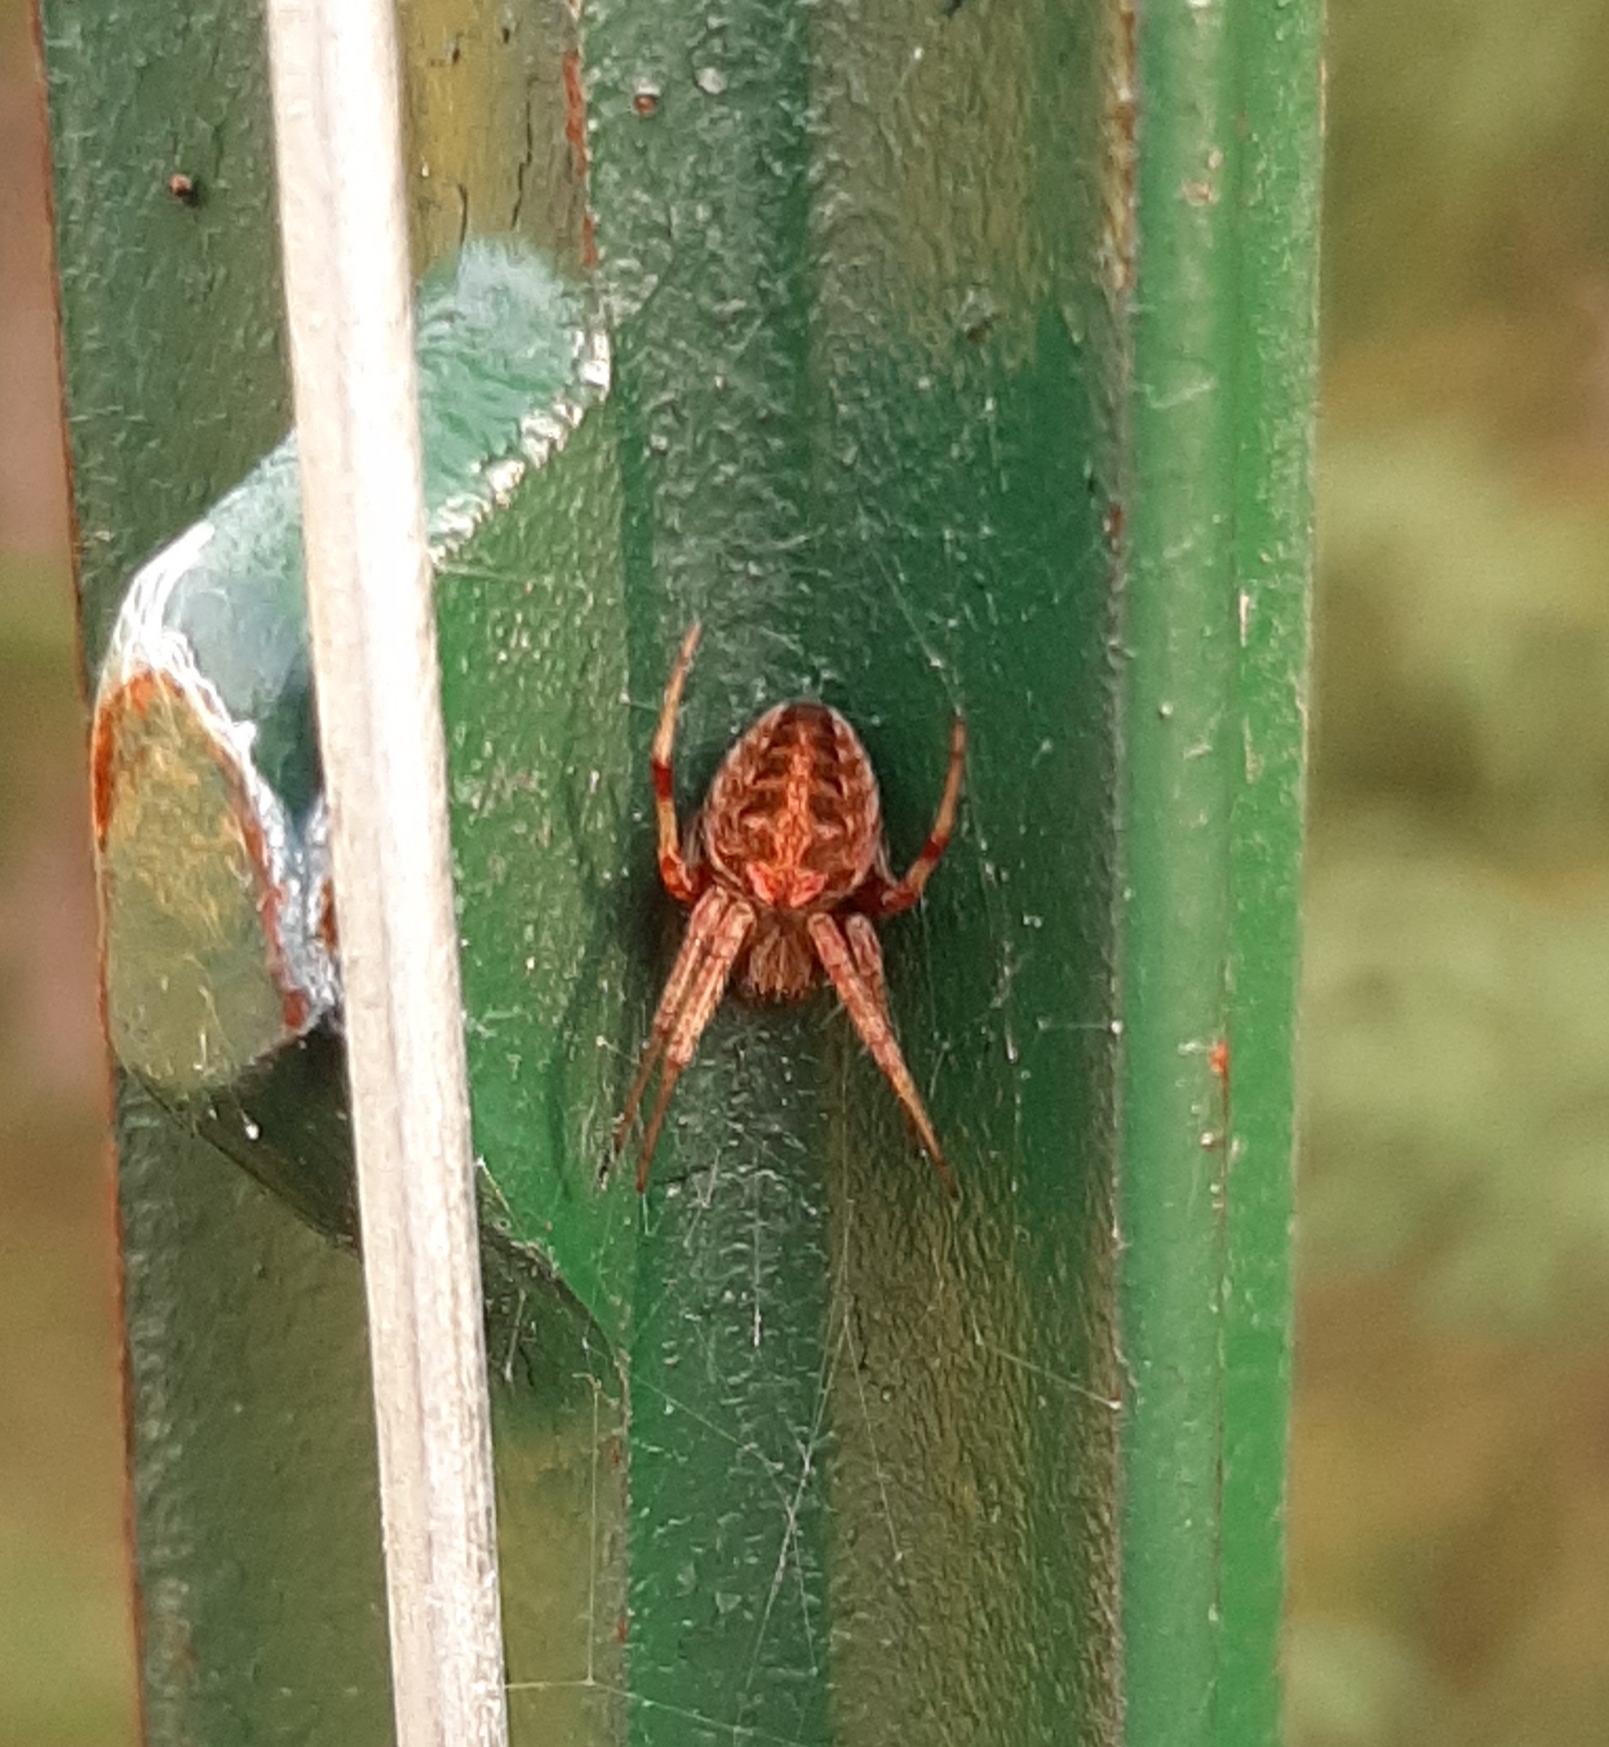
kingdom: Animalia
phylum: Arthropoda
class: Arachnida
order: Araneae
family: Araneidae
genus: Neoscona
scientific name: Neoscona arabesca
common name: Orb weavers
